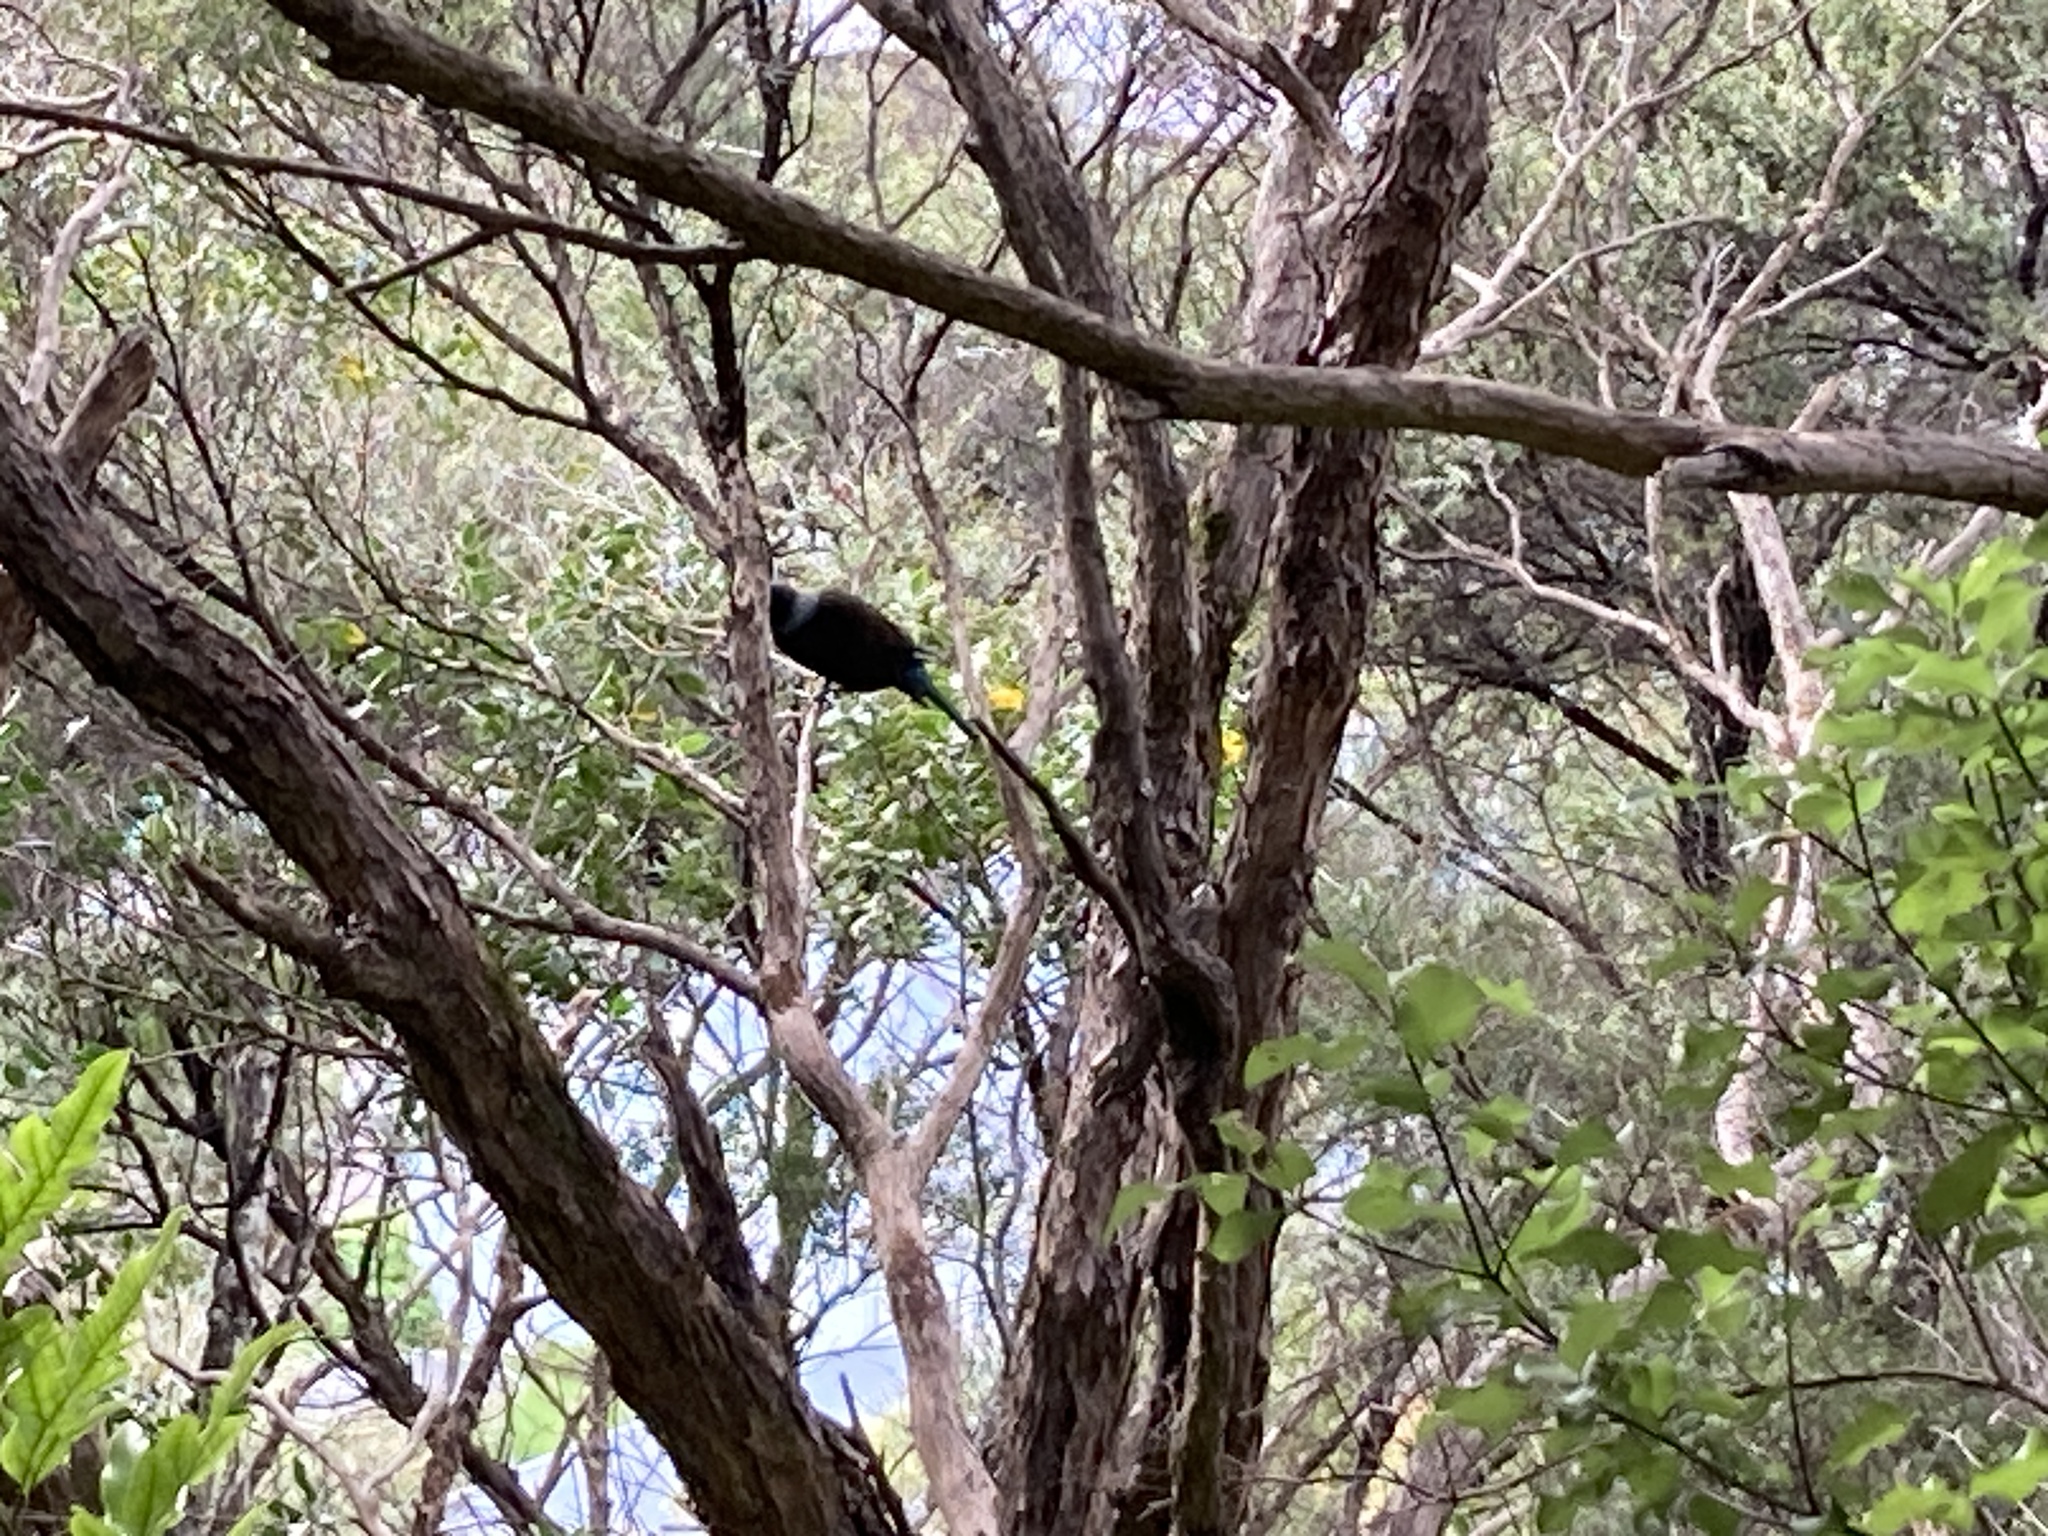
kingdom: Animalia
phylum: Chordata
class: Aves
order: Passeriformes
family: Meliphagidae
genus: Prosthemadera
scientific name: Prosthemadera novaeseelandiae
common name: Tui
